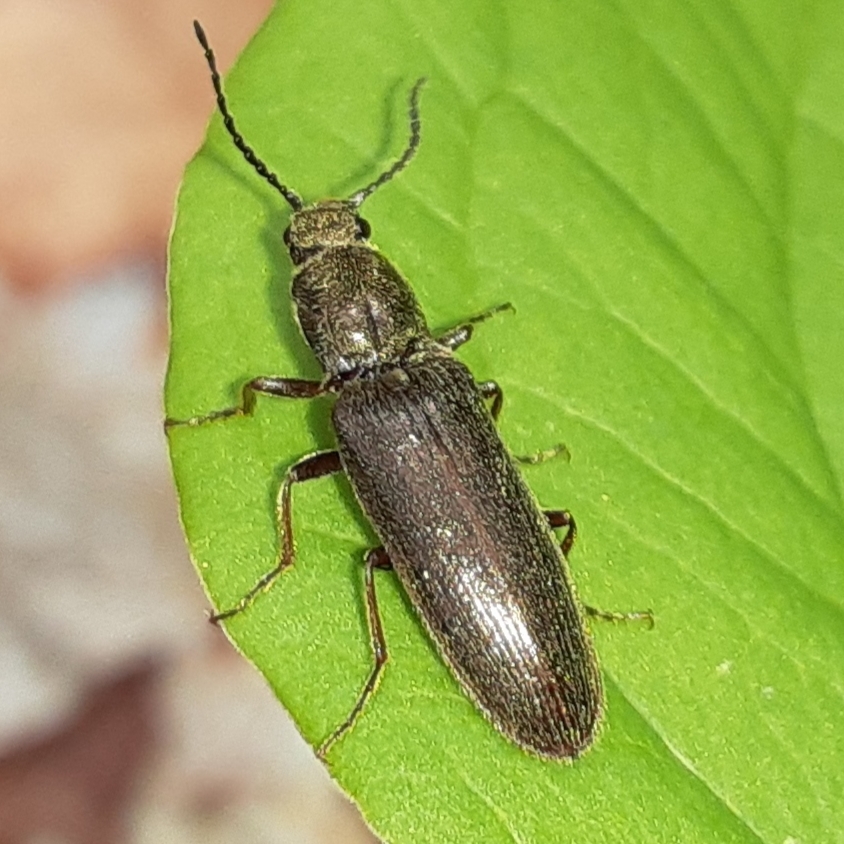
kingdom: Animalia
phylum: Arthropoda
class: Insecta
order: Coleoptera
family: Elateridae
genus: Sylvanelater
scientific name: Sylvanelater cylindriformis
